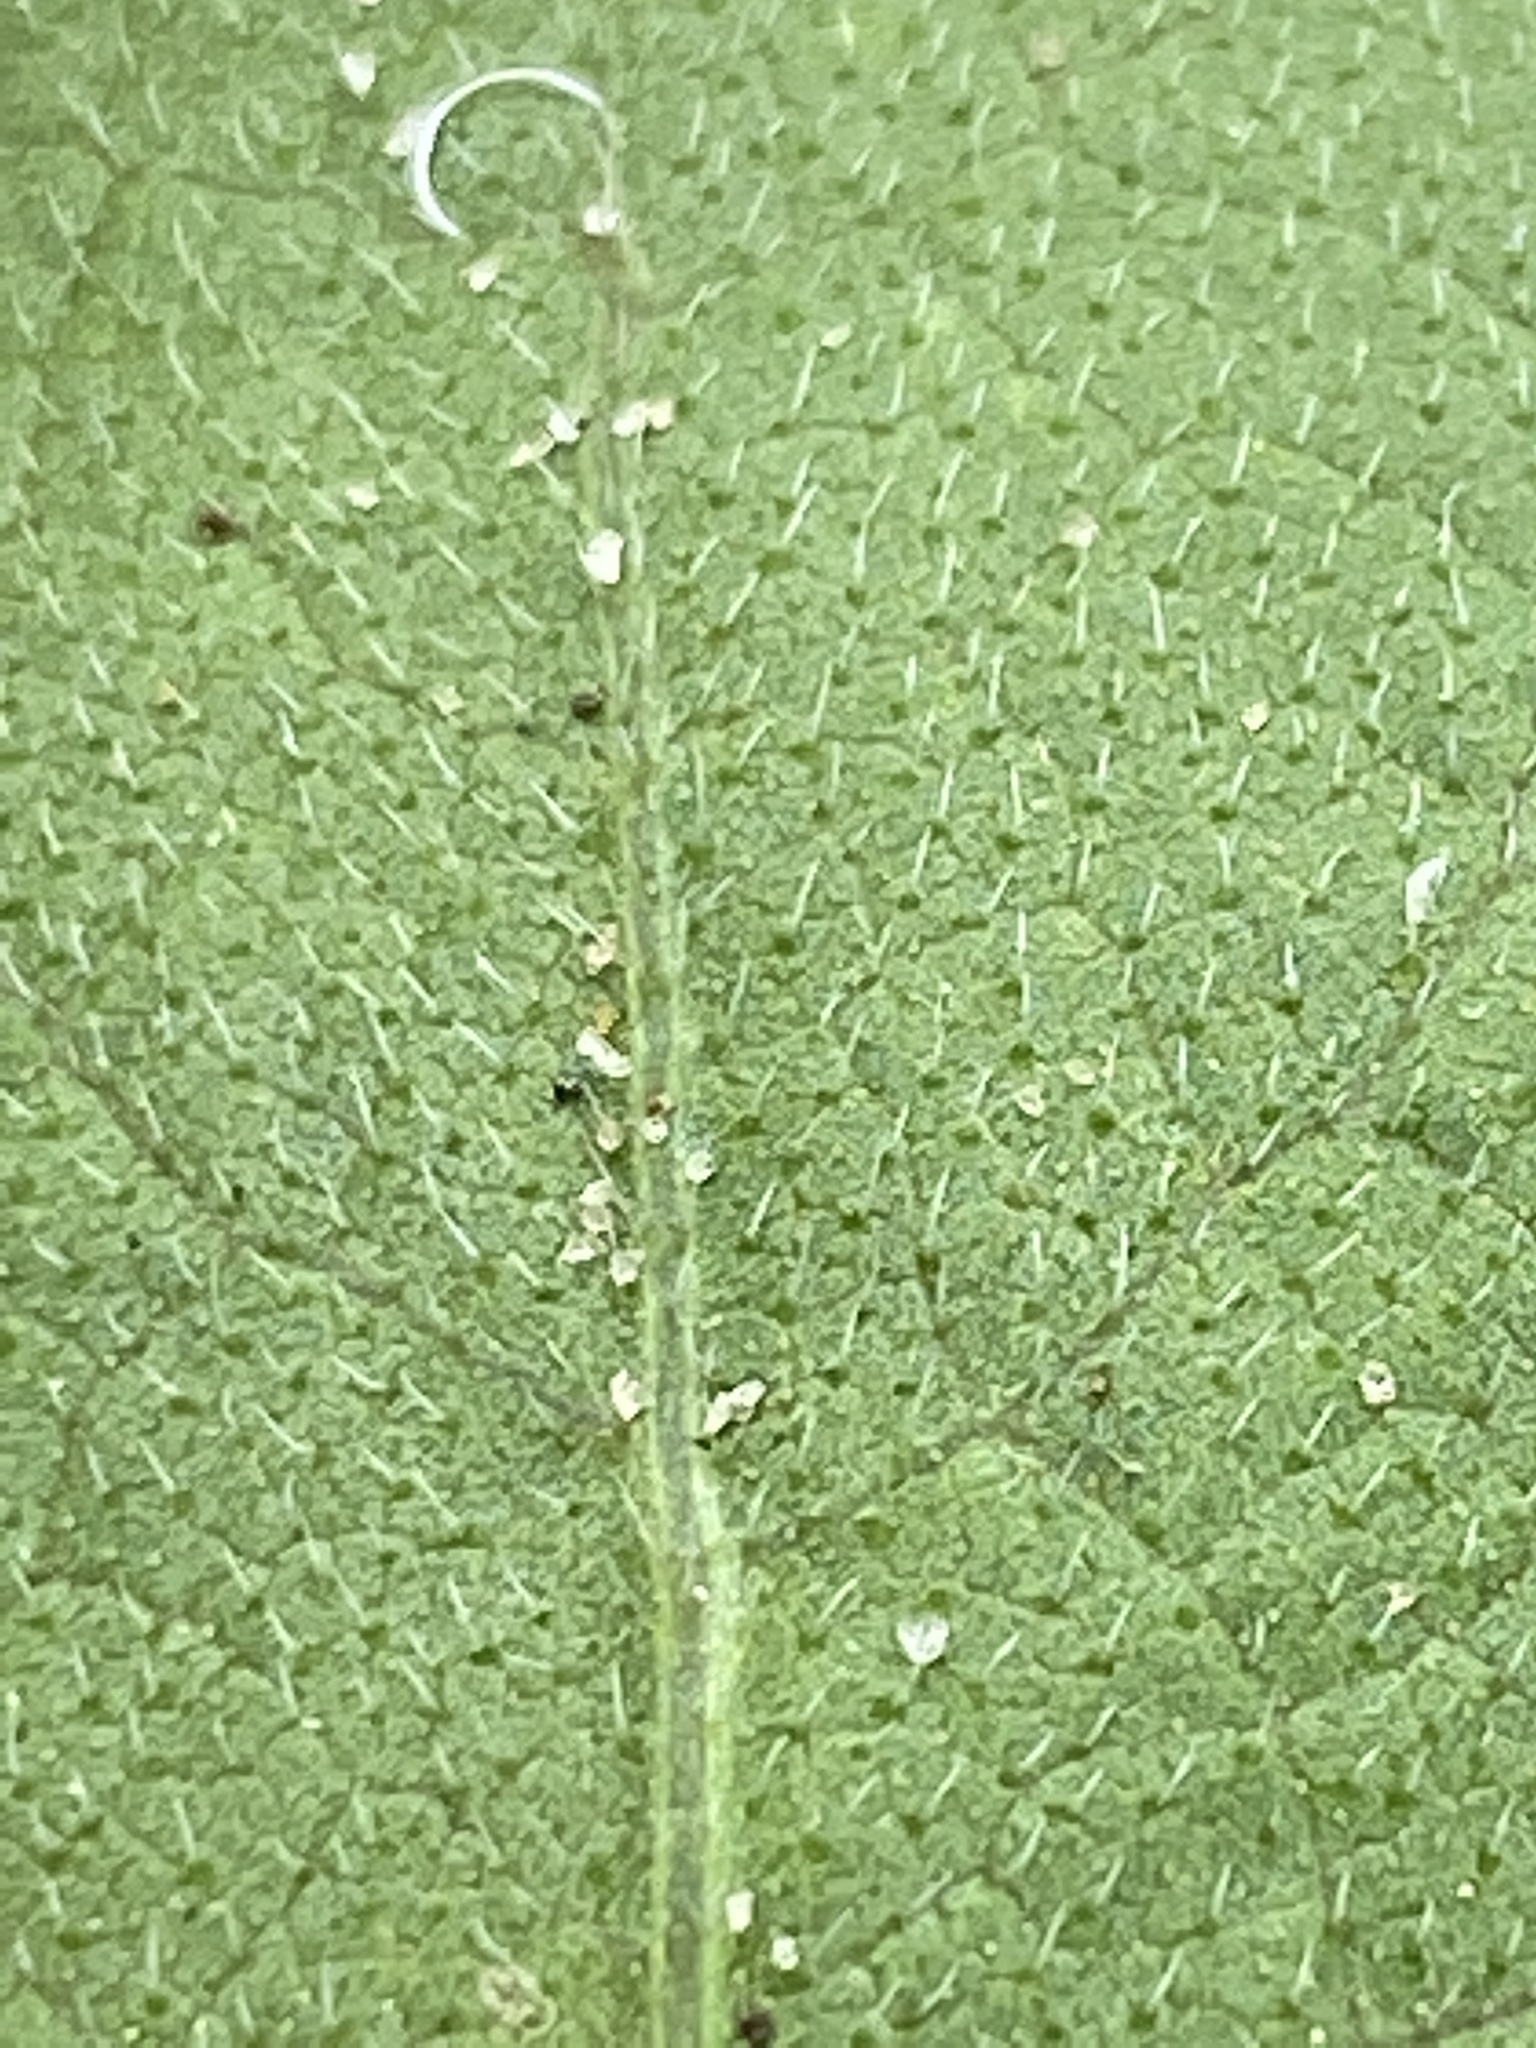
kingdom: Plantae
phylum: Tracheophyta
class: Magnoliopsida
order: Asterales
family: Asteraceae
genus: Heterotheca
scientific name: Heterotheca subaxillaris
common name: Camphorweed
